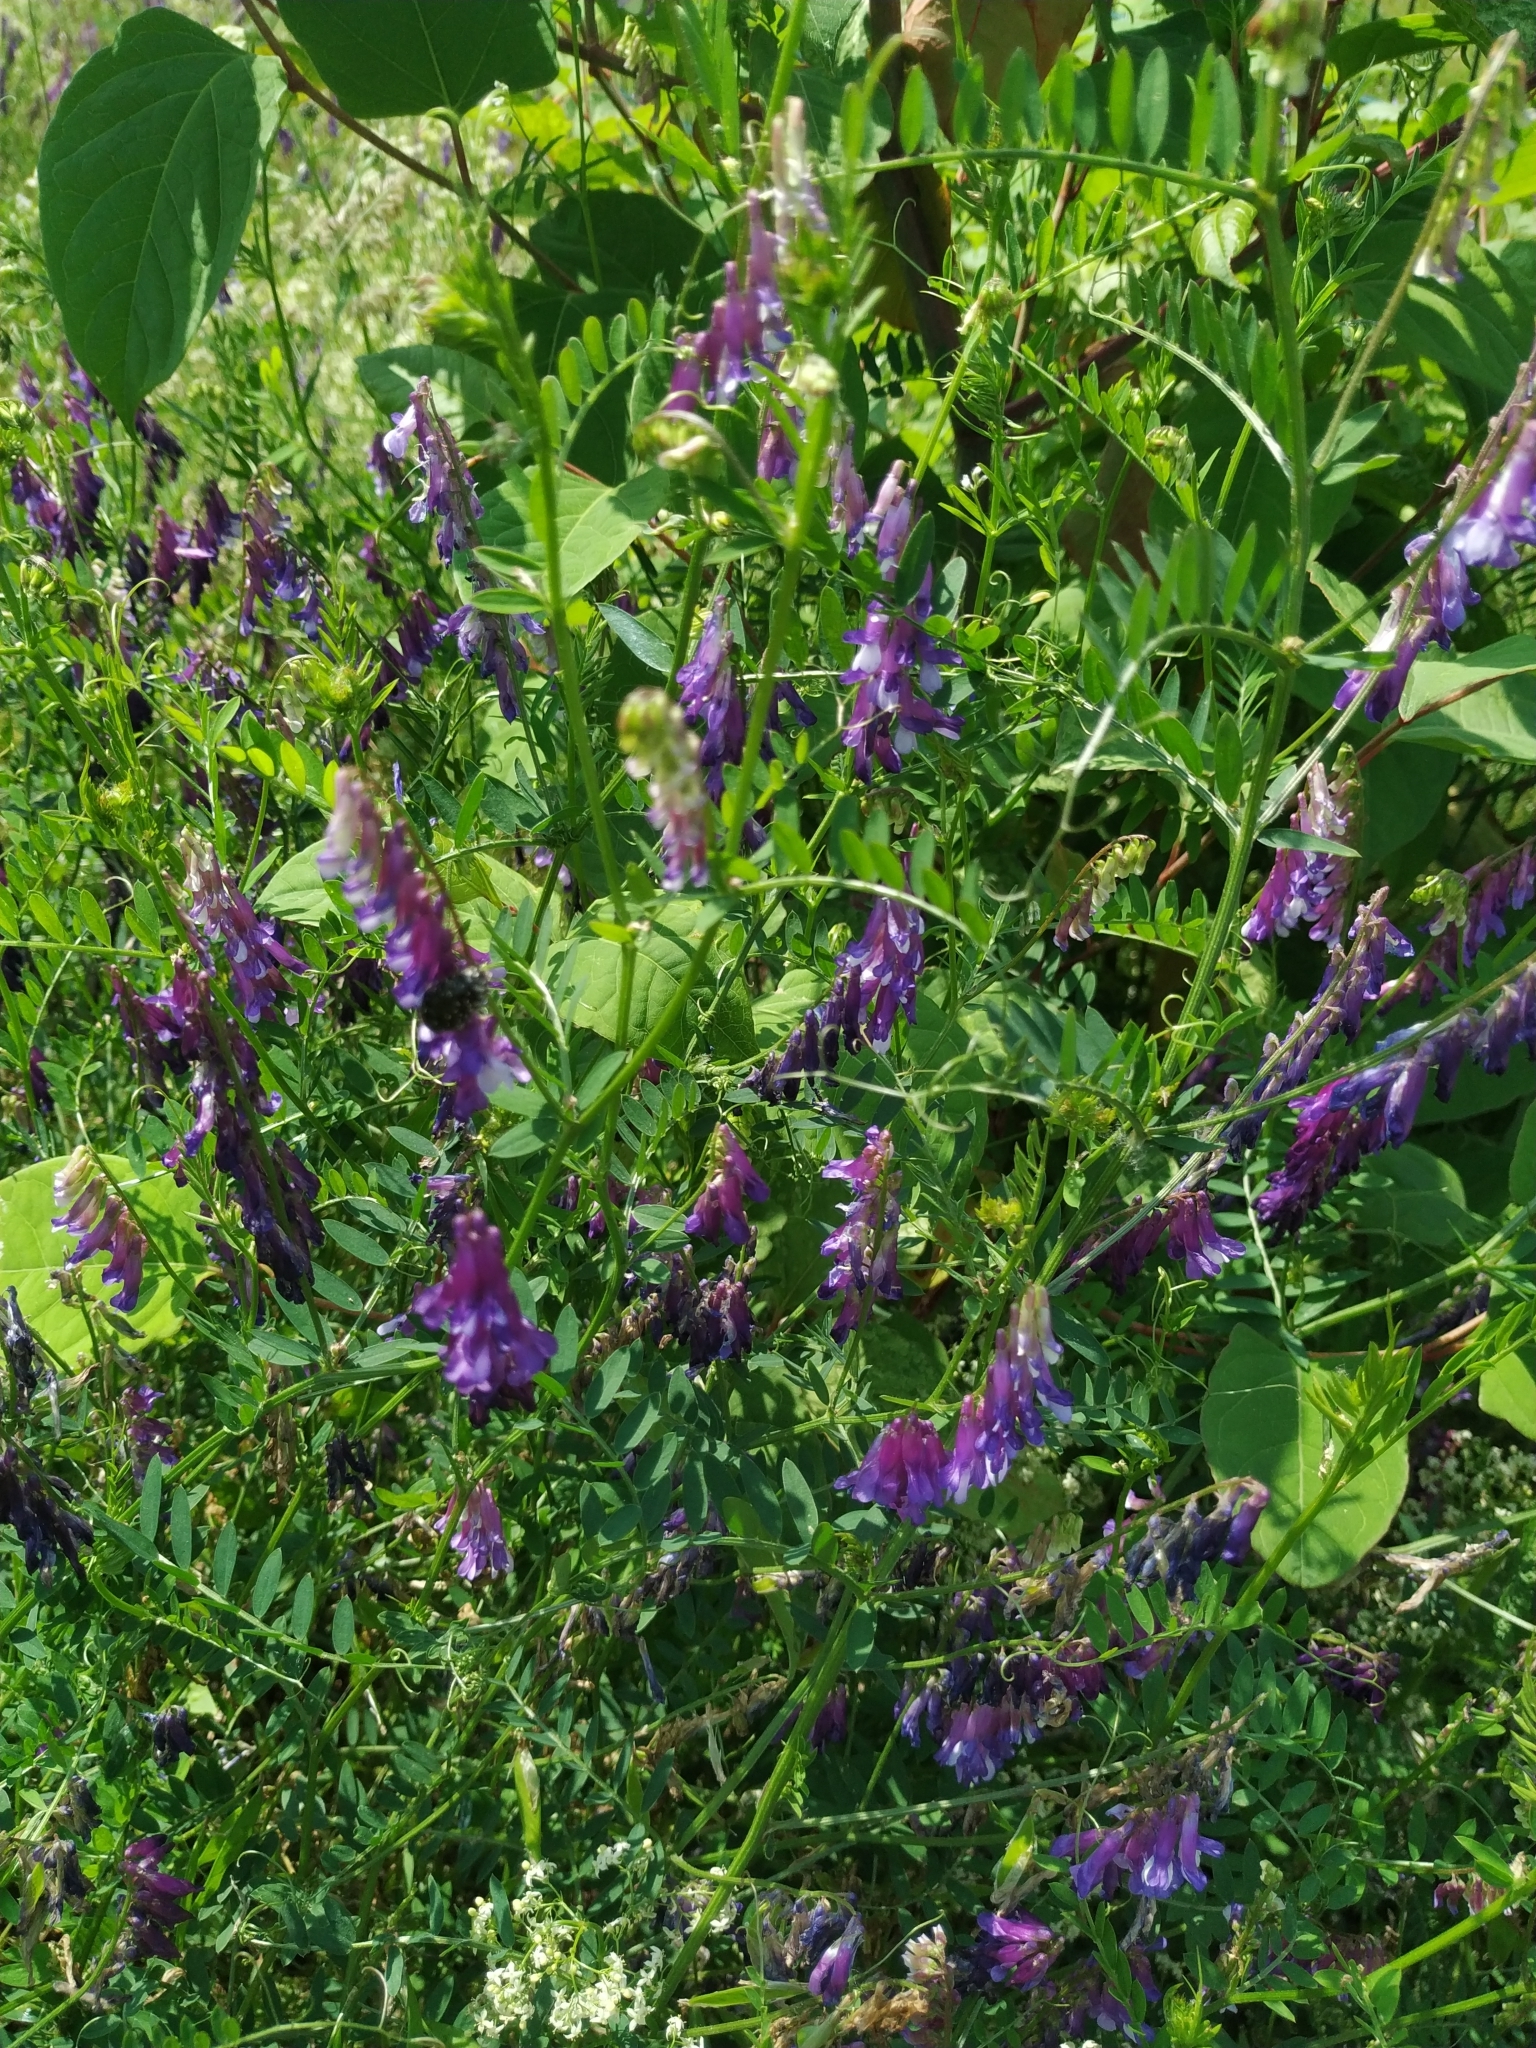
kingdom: Plantae
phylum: Tracheophyta
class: Magnoliopsida
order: Fabales
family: Fabaceae
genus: Vicia
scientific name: Vicia cracca
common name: Bird vetch
